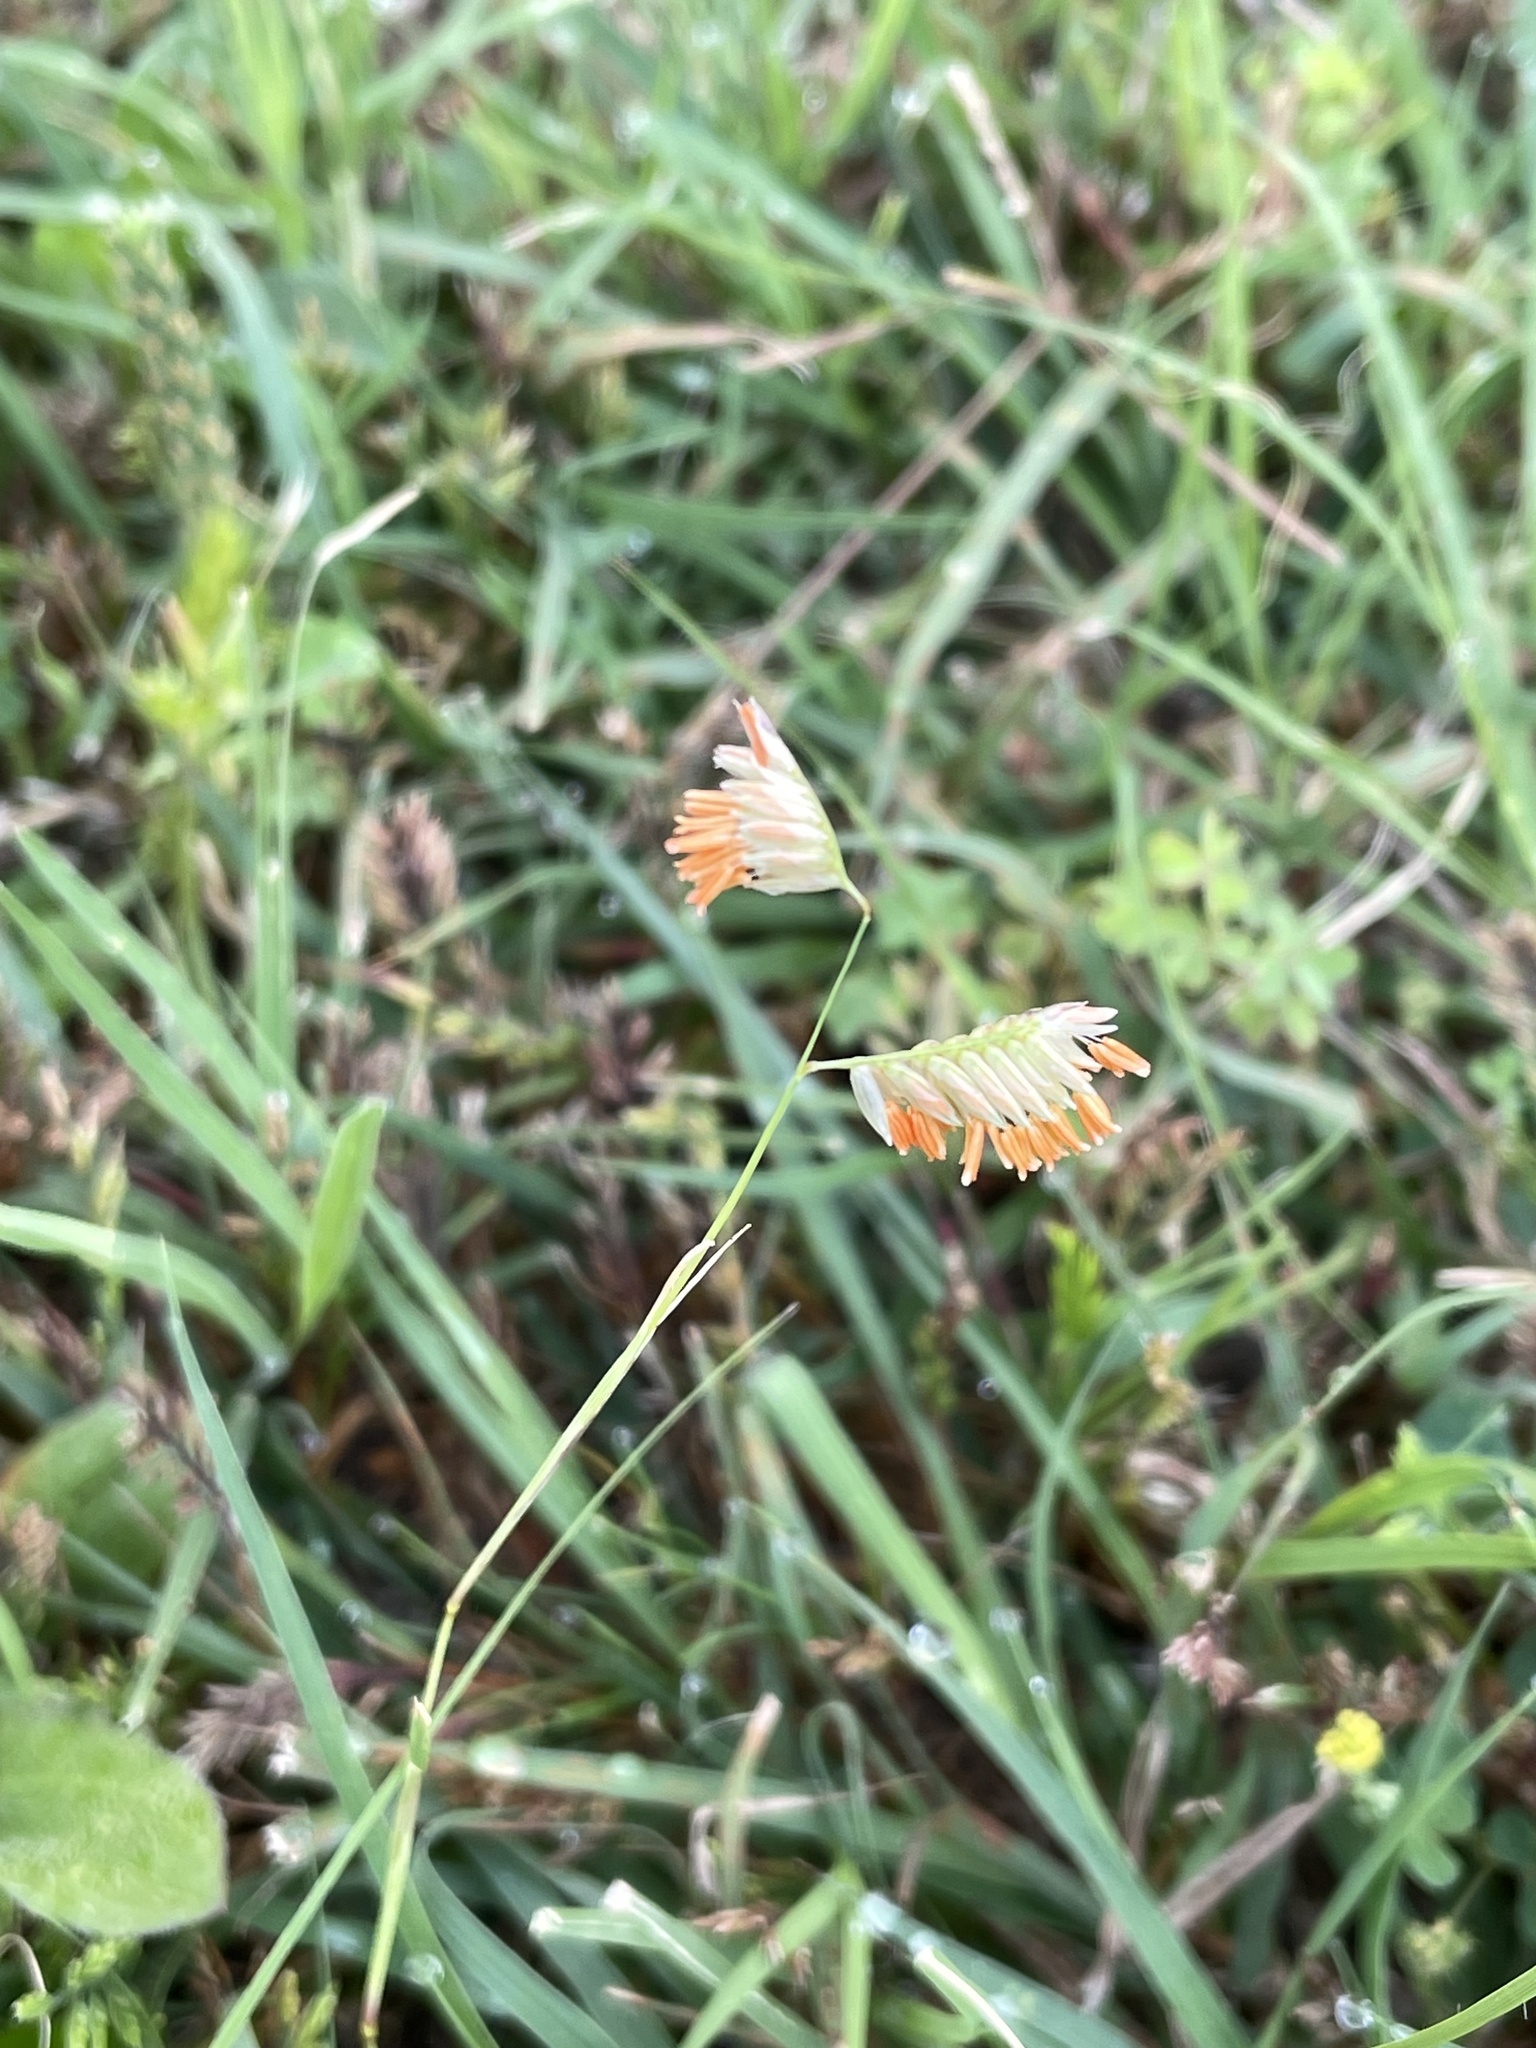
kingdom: Plantae
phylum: Tracheophyta
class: Liliopsida
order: Poales
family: Poaceae
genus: Bouteloua
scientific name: Bouteloua dactyloides
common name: Buffalo grass
